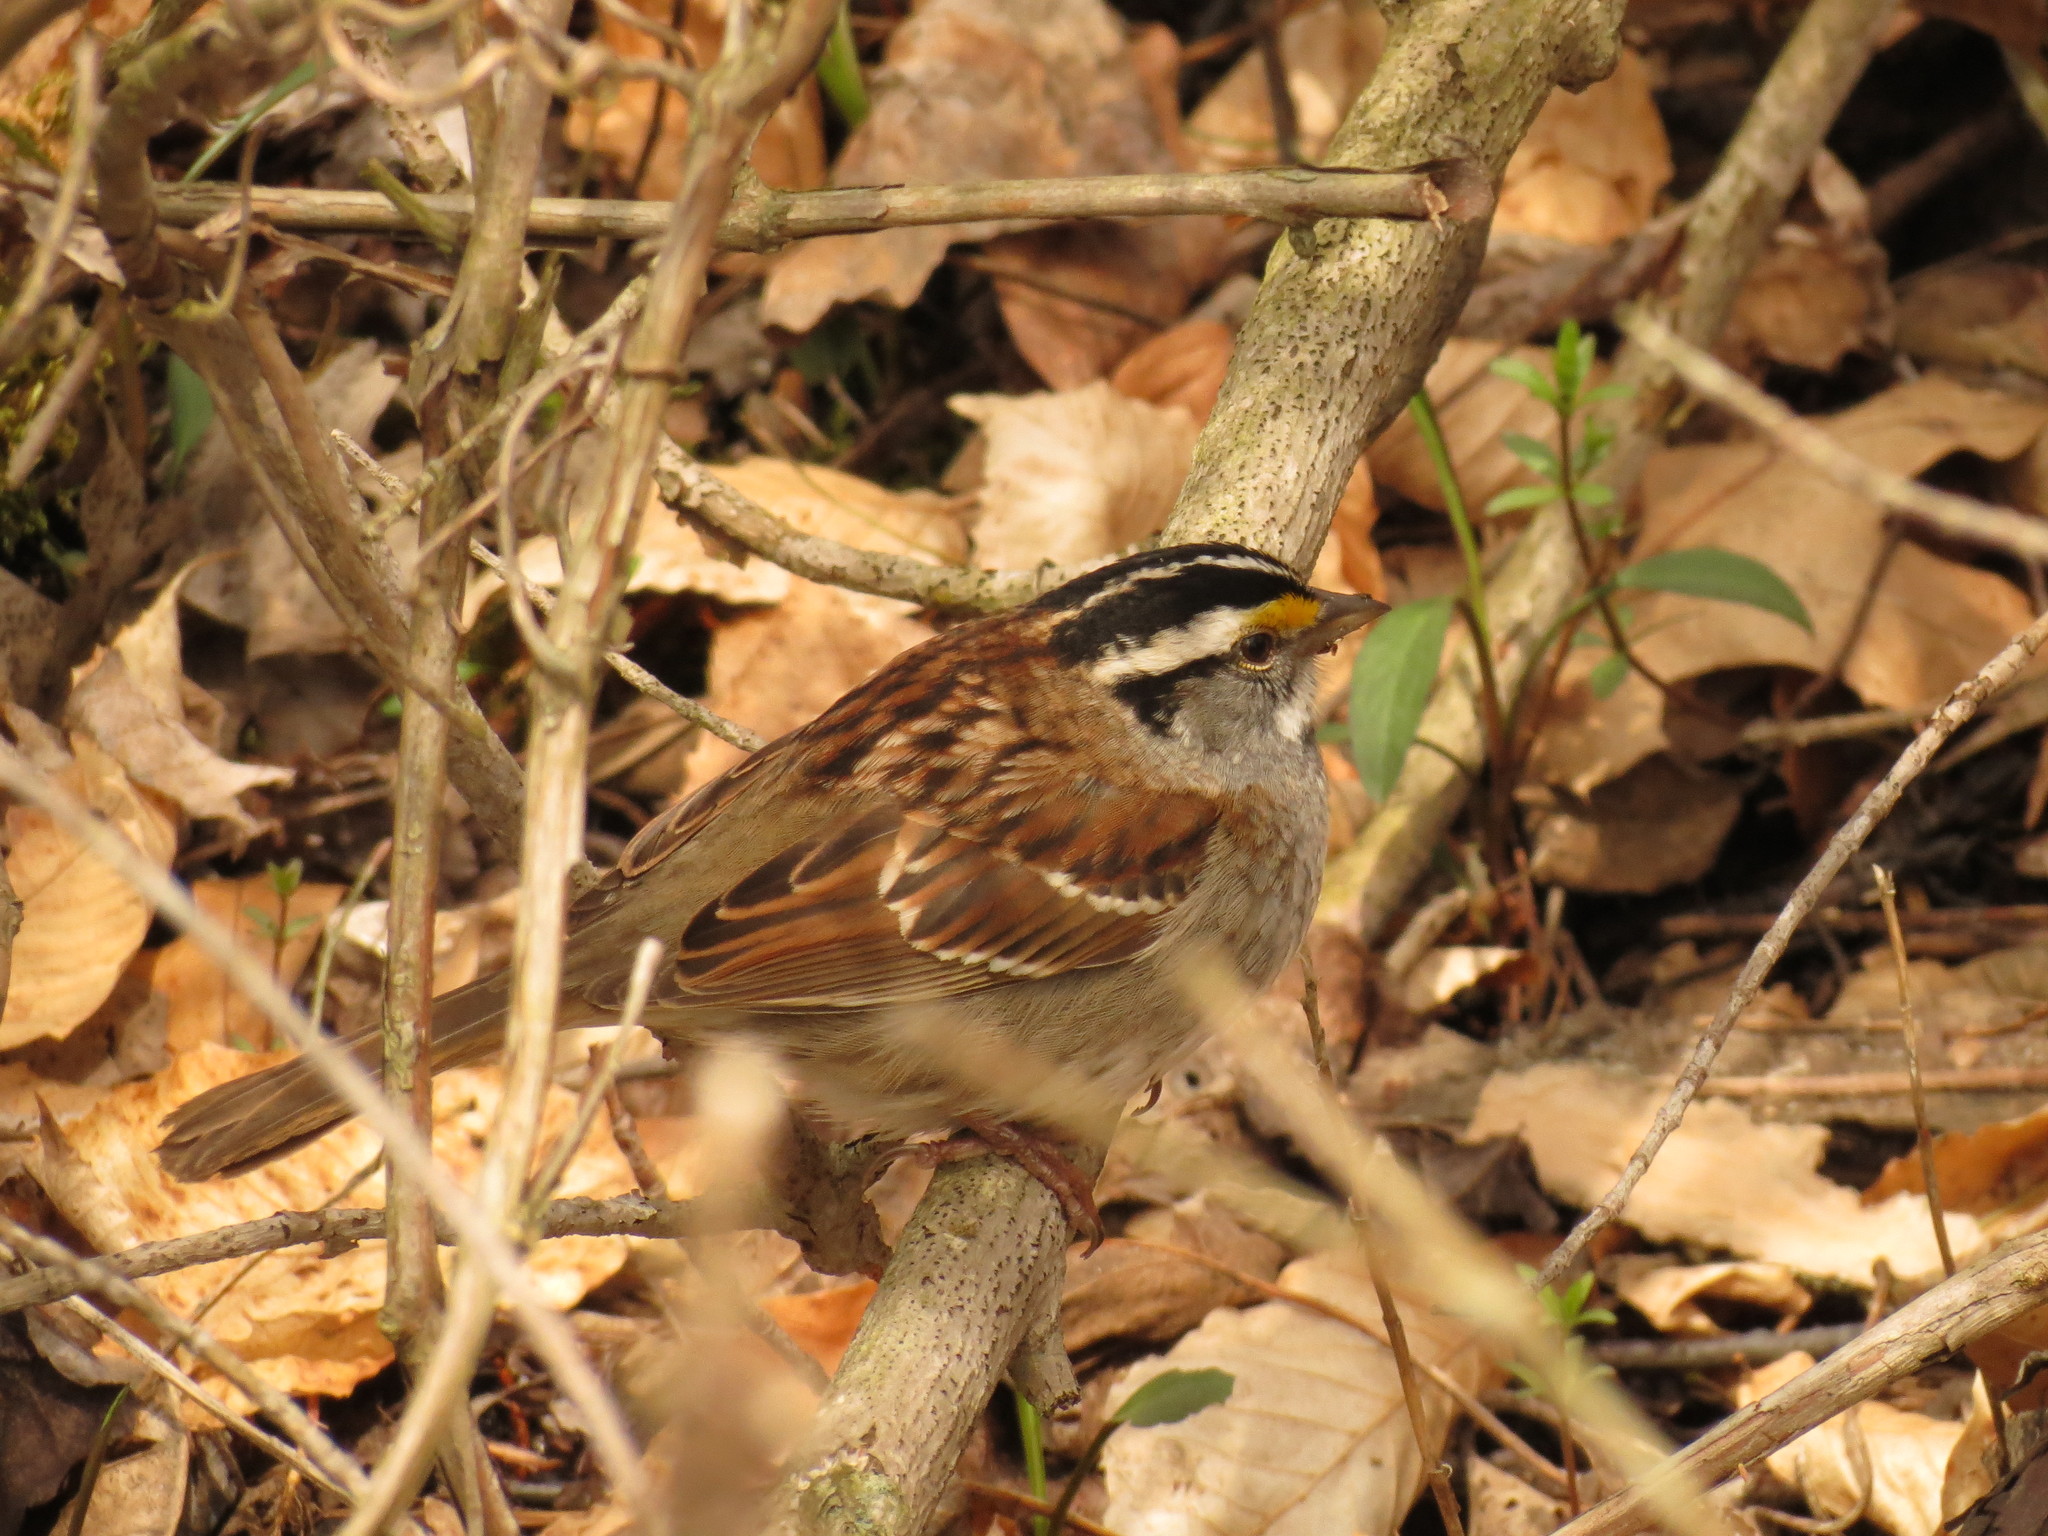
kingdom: Animalia
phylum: Chordata
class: Aves
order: Passeriformes
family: Passerellidae
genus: Zonotrichia
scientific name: Zonotrichia albicollis
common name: White-throated sparrow
